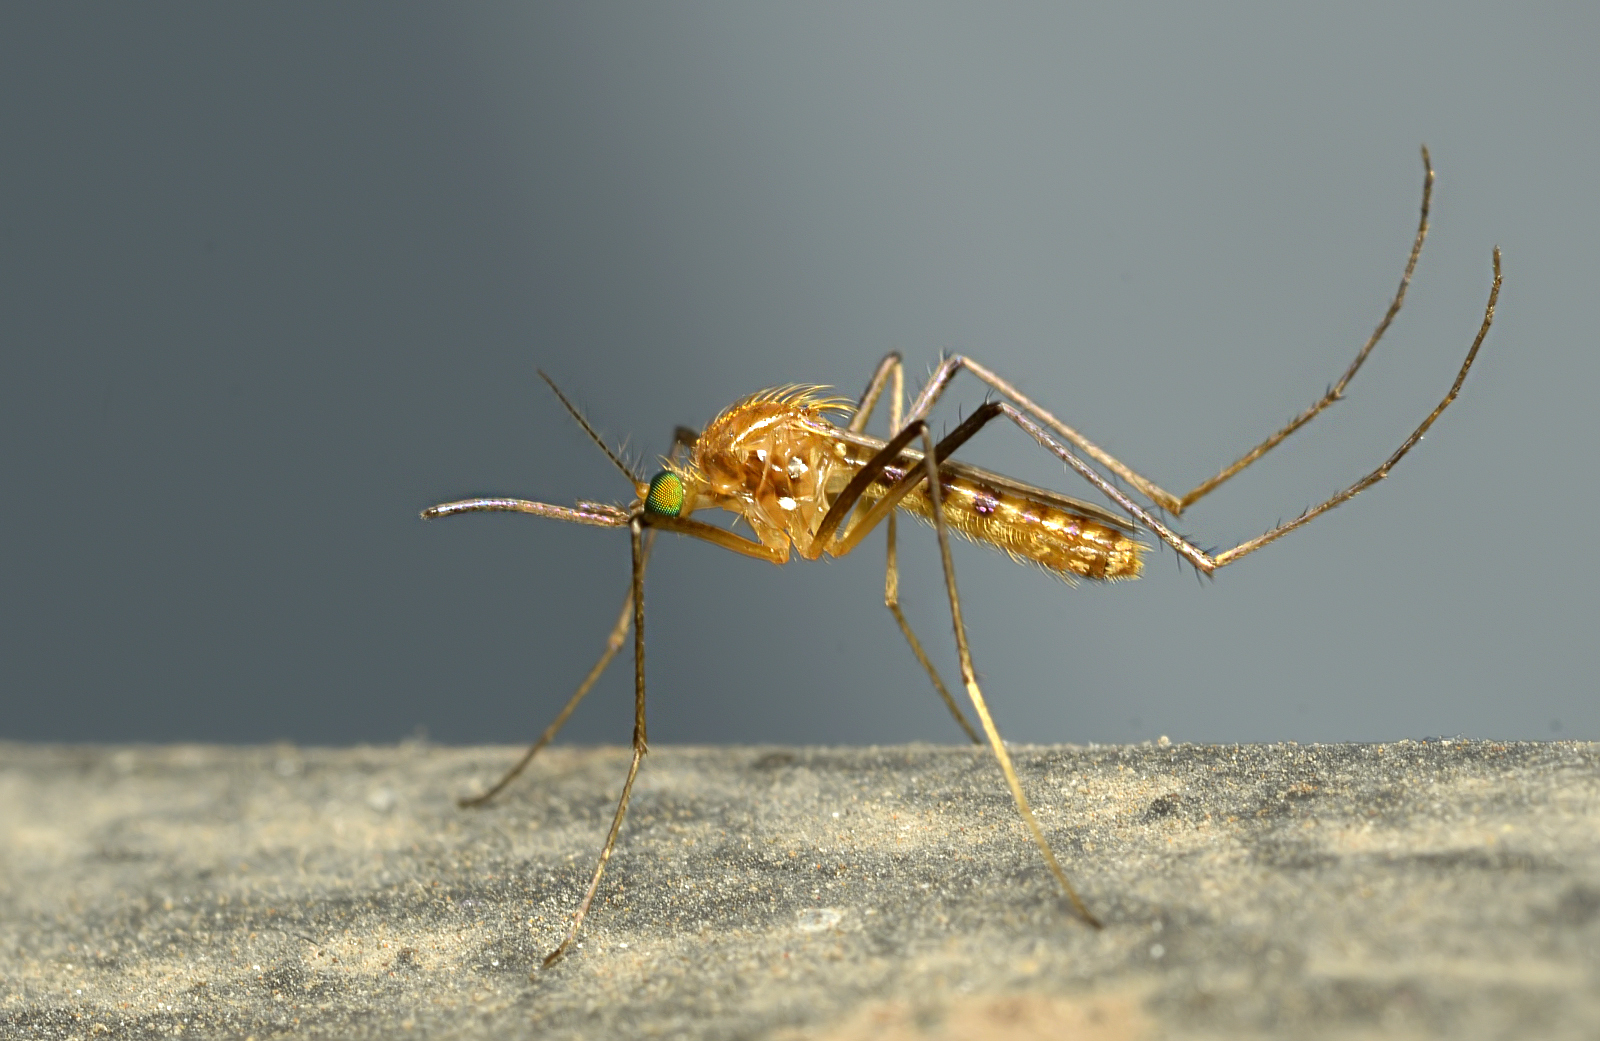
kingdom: Animalia
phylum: Arthropoda
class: Insecta
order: Diptera
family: Culicidae
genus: Coquillettidia
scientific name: Coquillettidia crassipes
